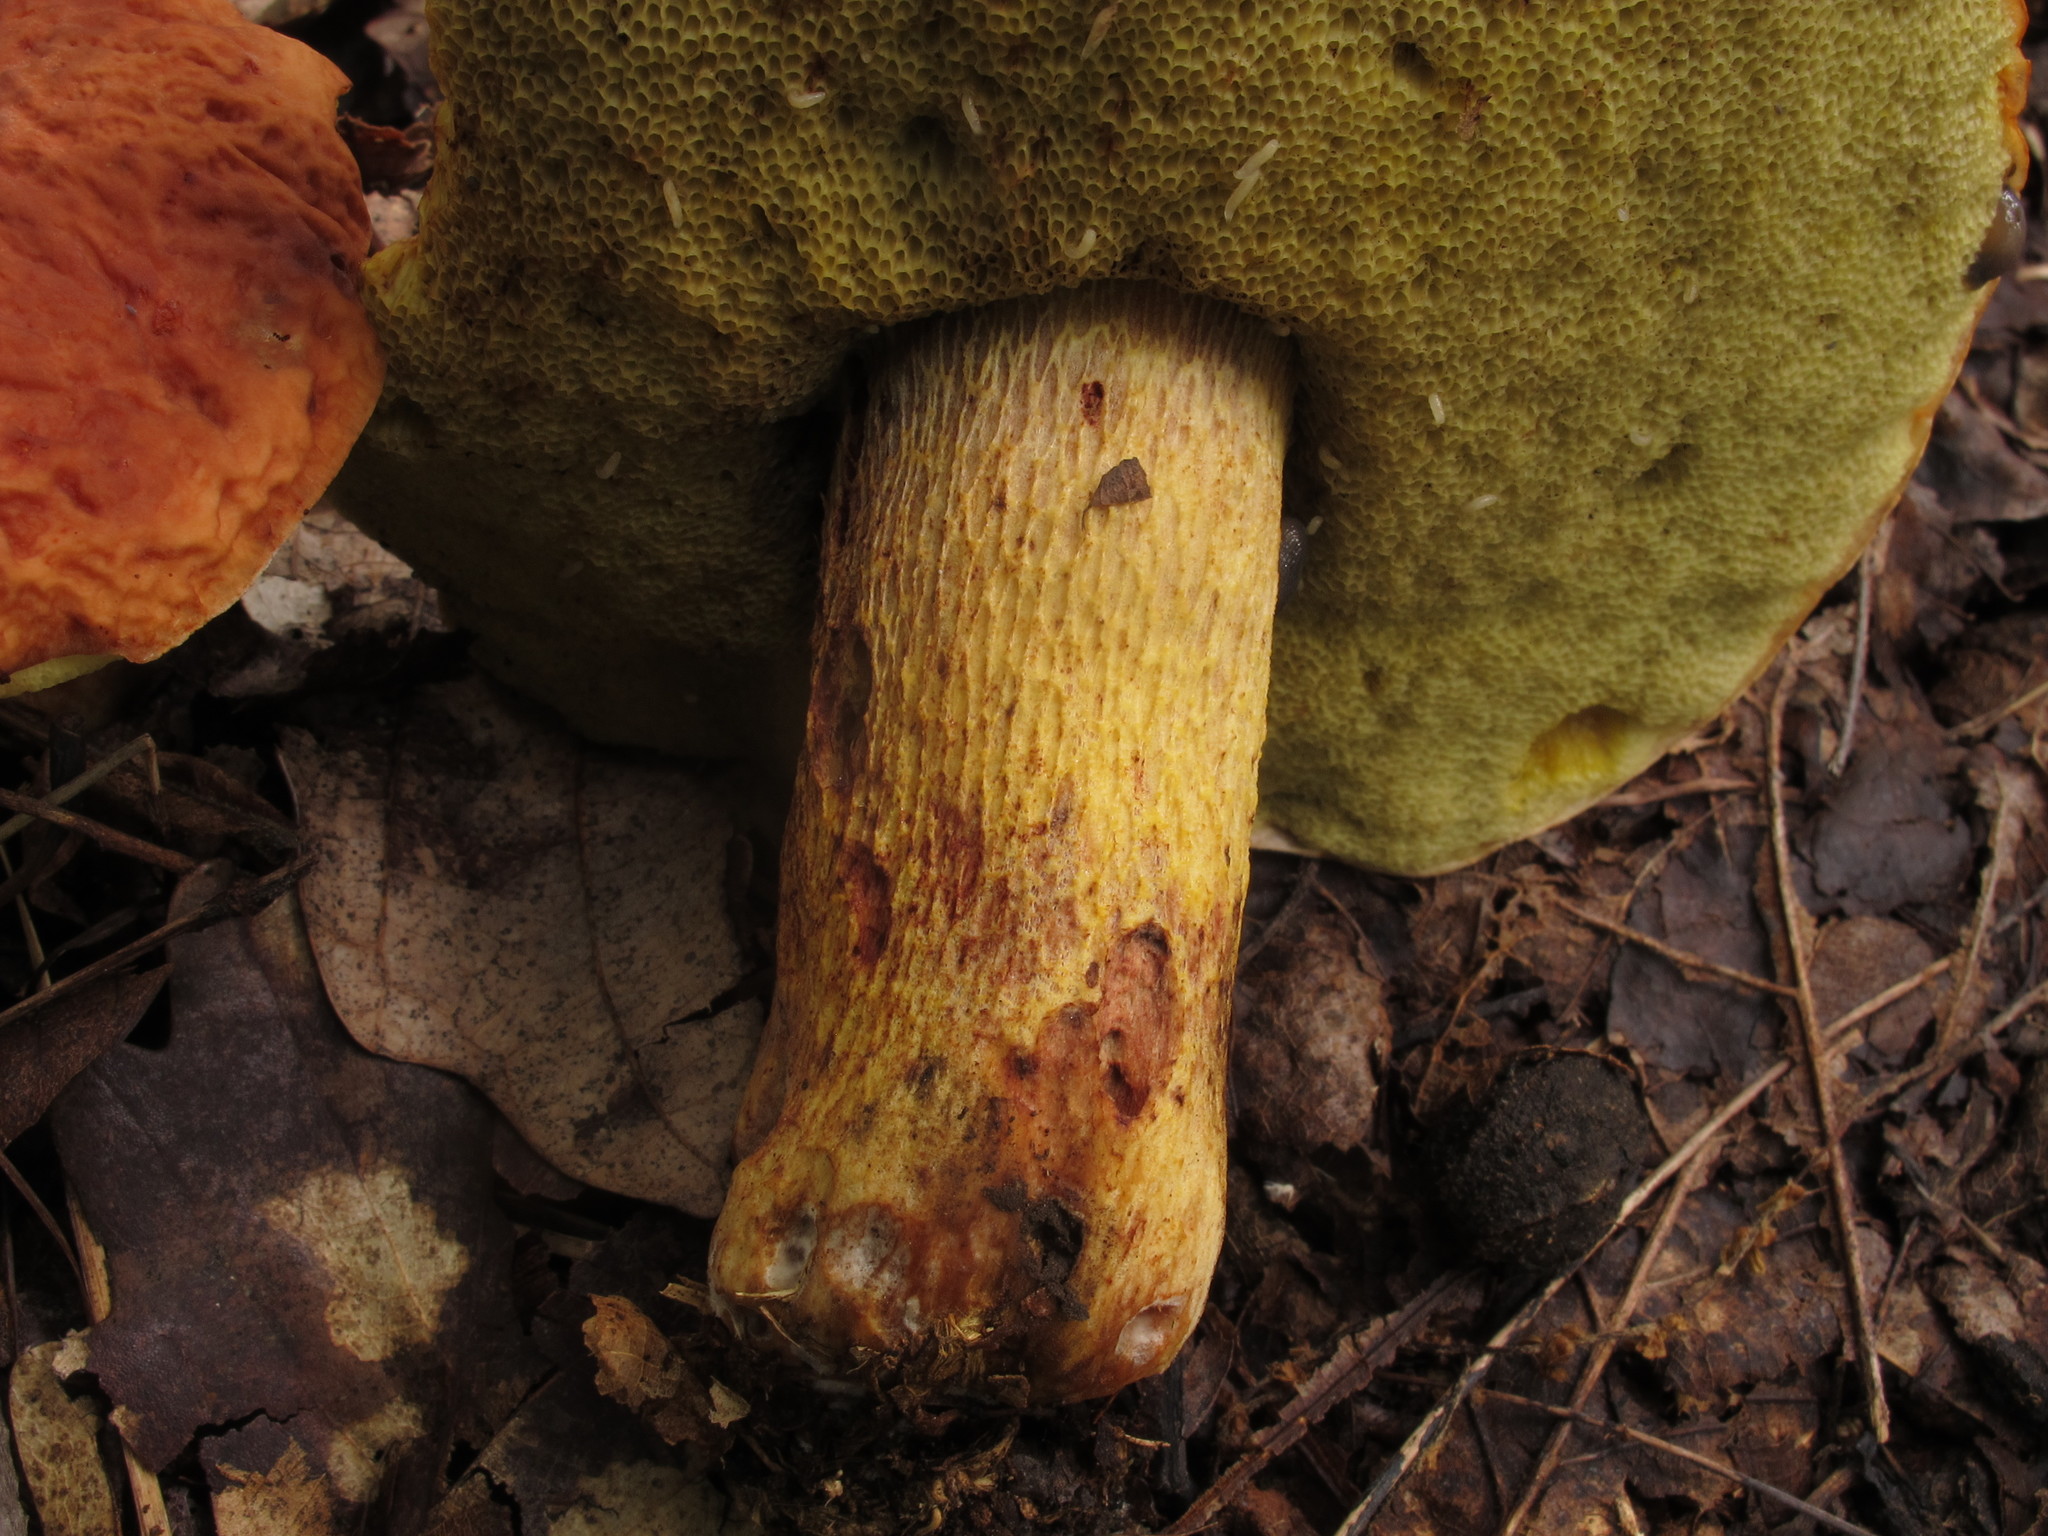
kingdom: Fungi
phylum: Basidiomycota
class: Agaricomycetes
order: Boletales
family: Boletaceae
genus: Hemileccinum
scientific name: Hemileccinum hortonii
